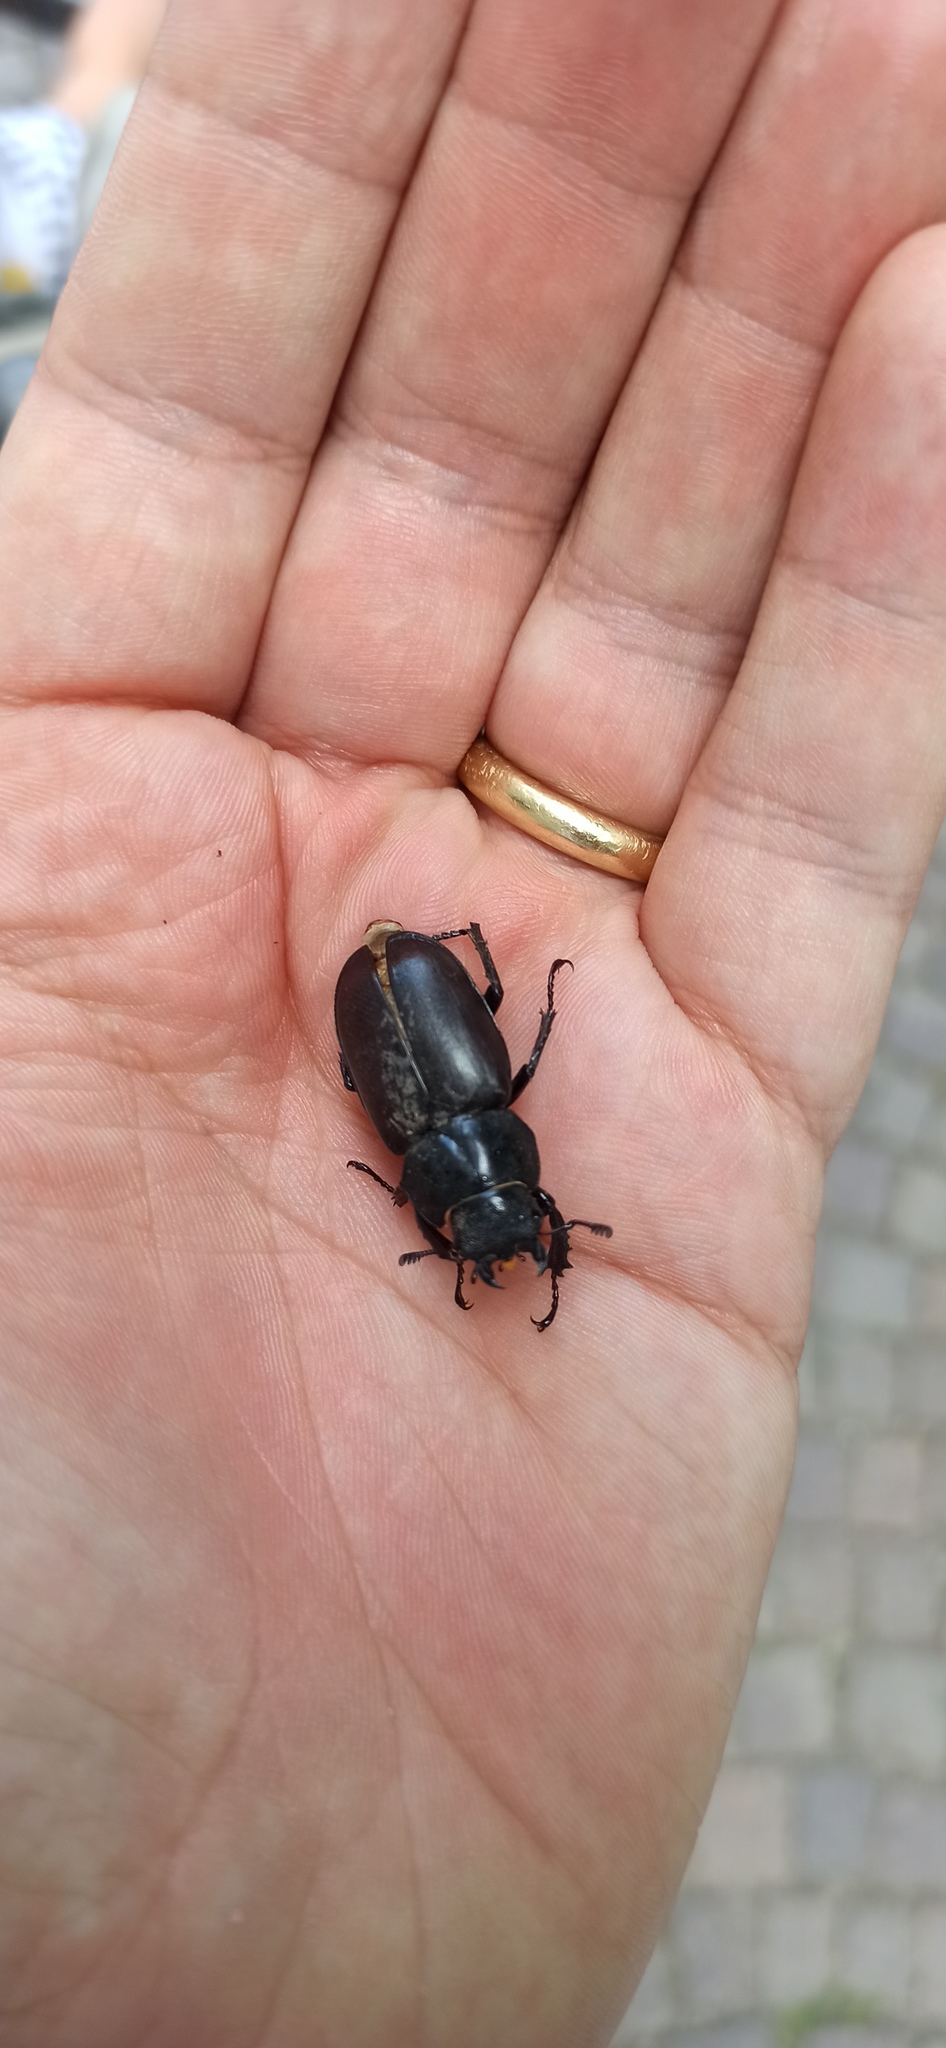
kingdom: Animalia
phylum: Arthropoda
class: Insecta
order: Coleoptera
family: Lucanidae
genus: Lucanus
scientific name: Lucanus cervus
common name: Stag beetle
